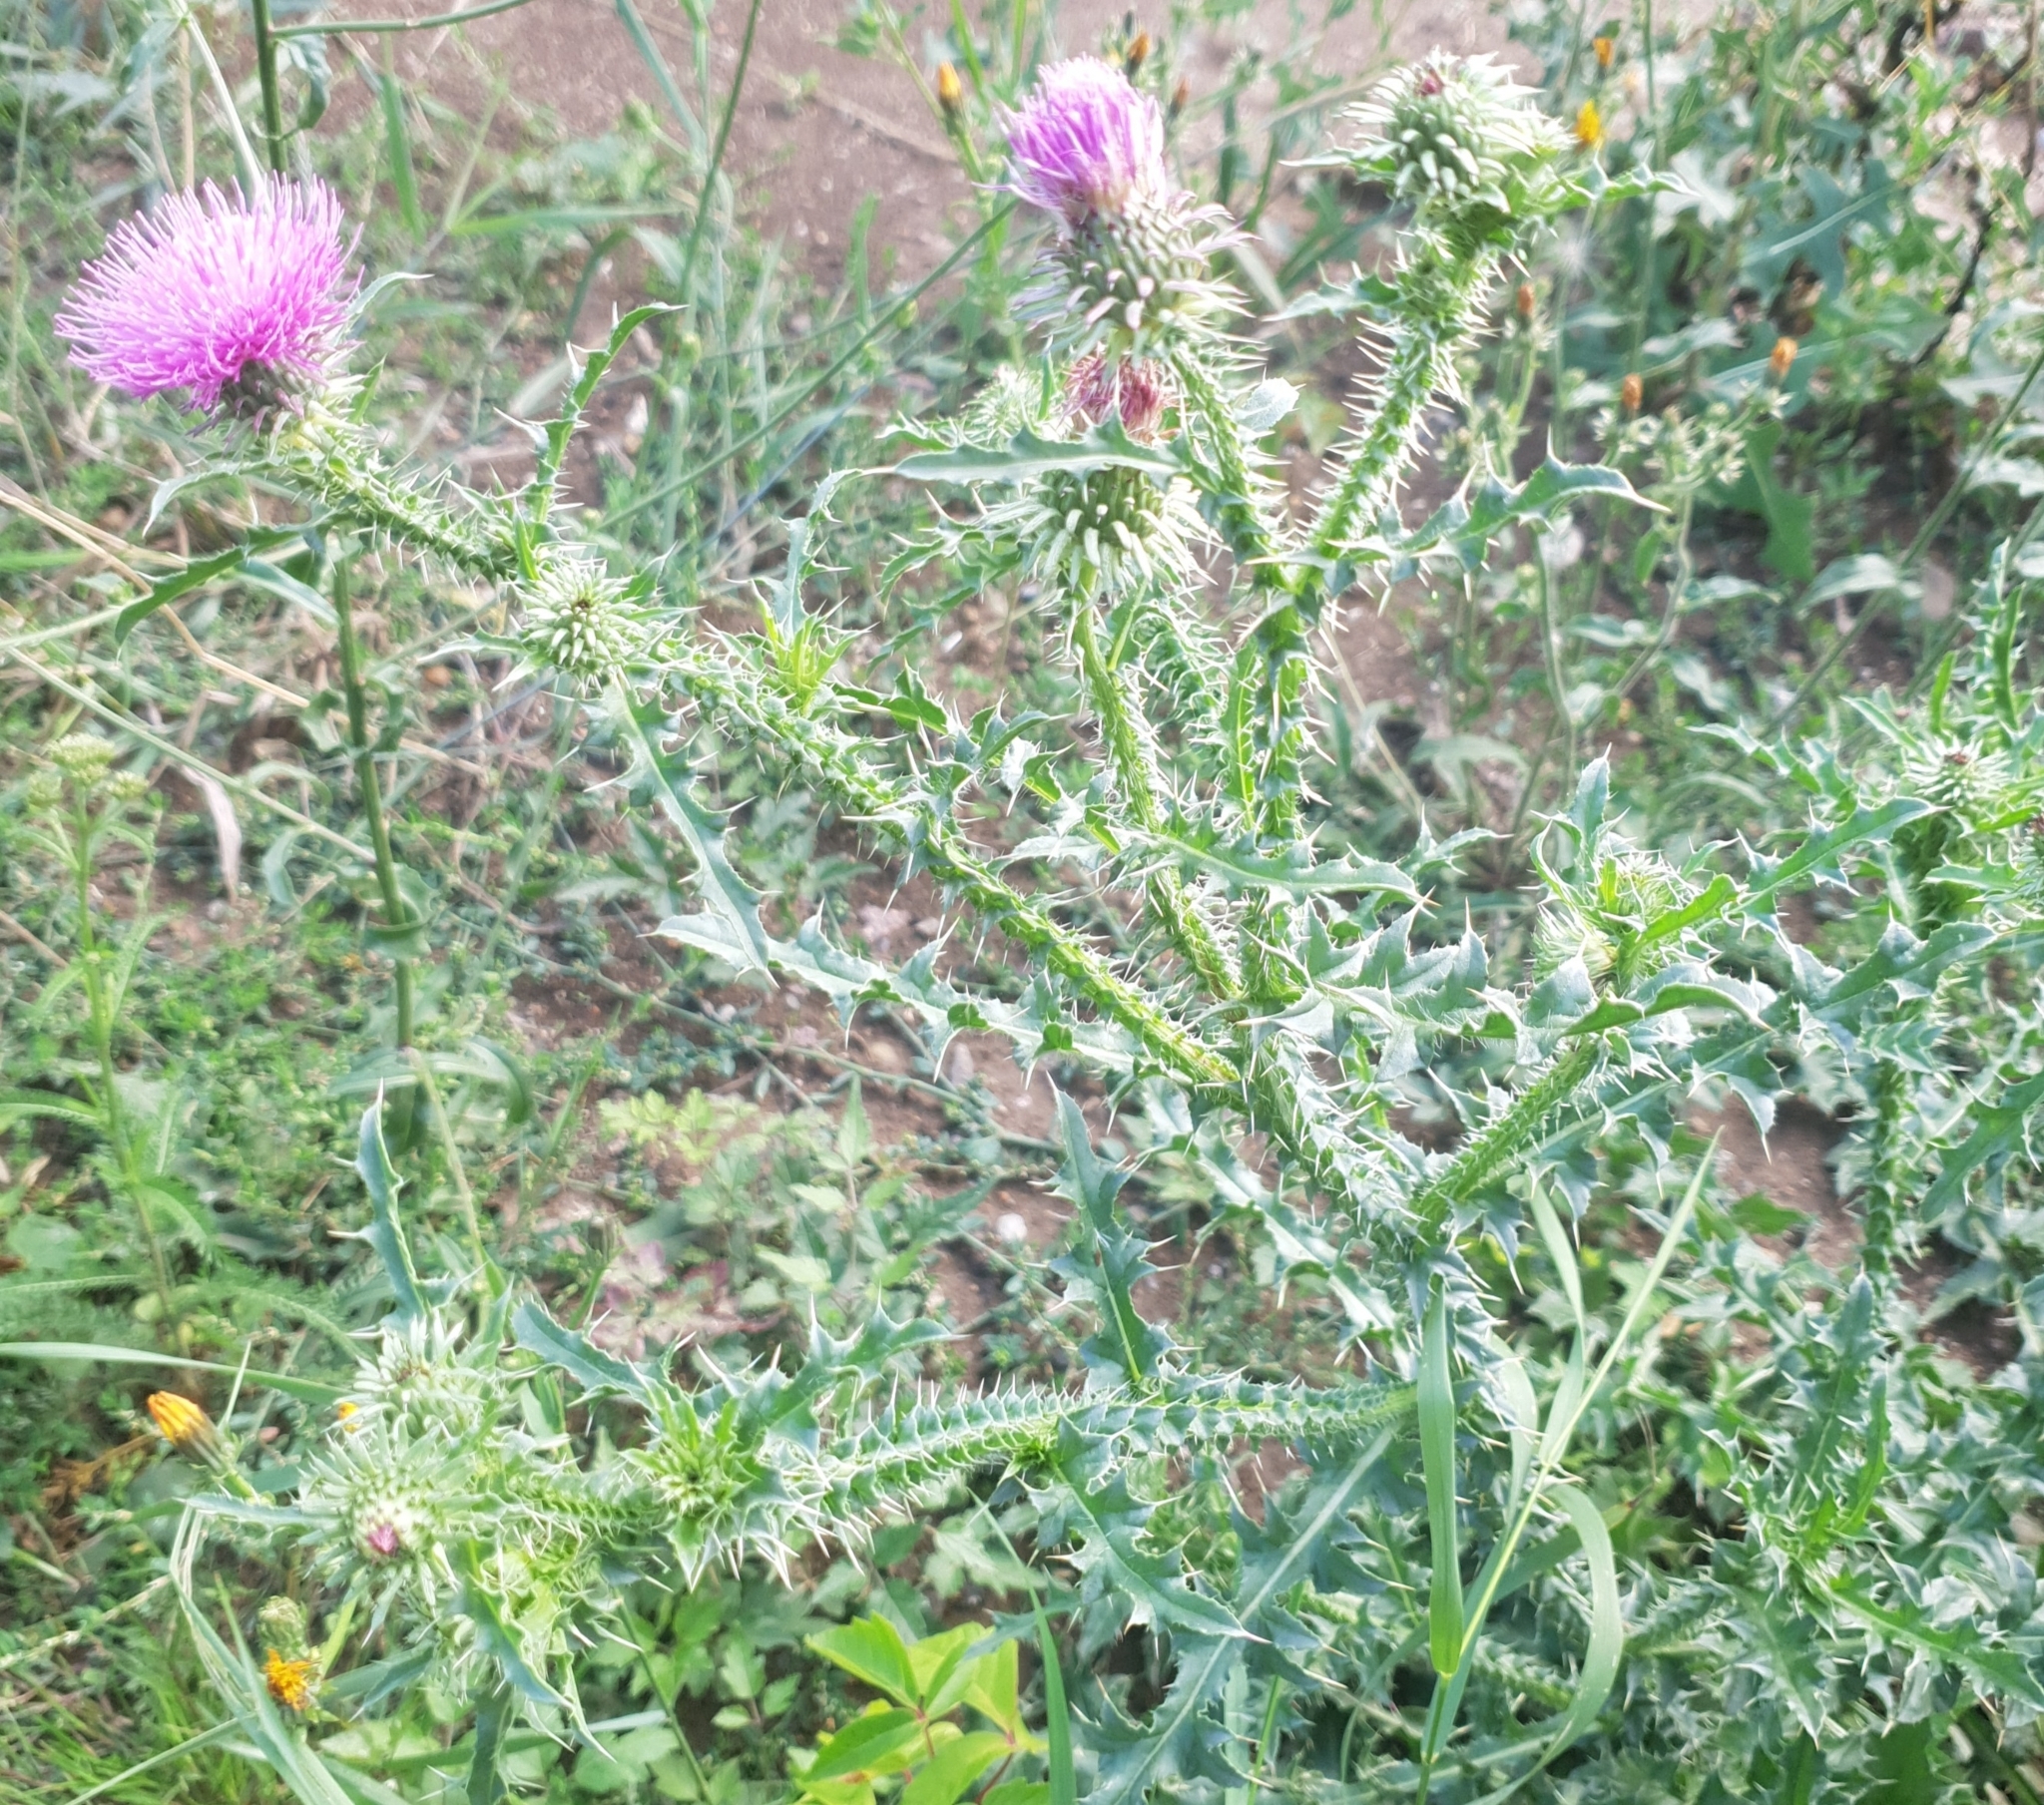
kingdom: Plantae
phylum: Tracheophyta
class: Magnoliopsida
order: Asterales
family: Asteraceae
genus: Carduus
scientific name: Carduus acanthoides
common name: Plumeless thistle
